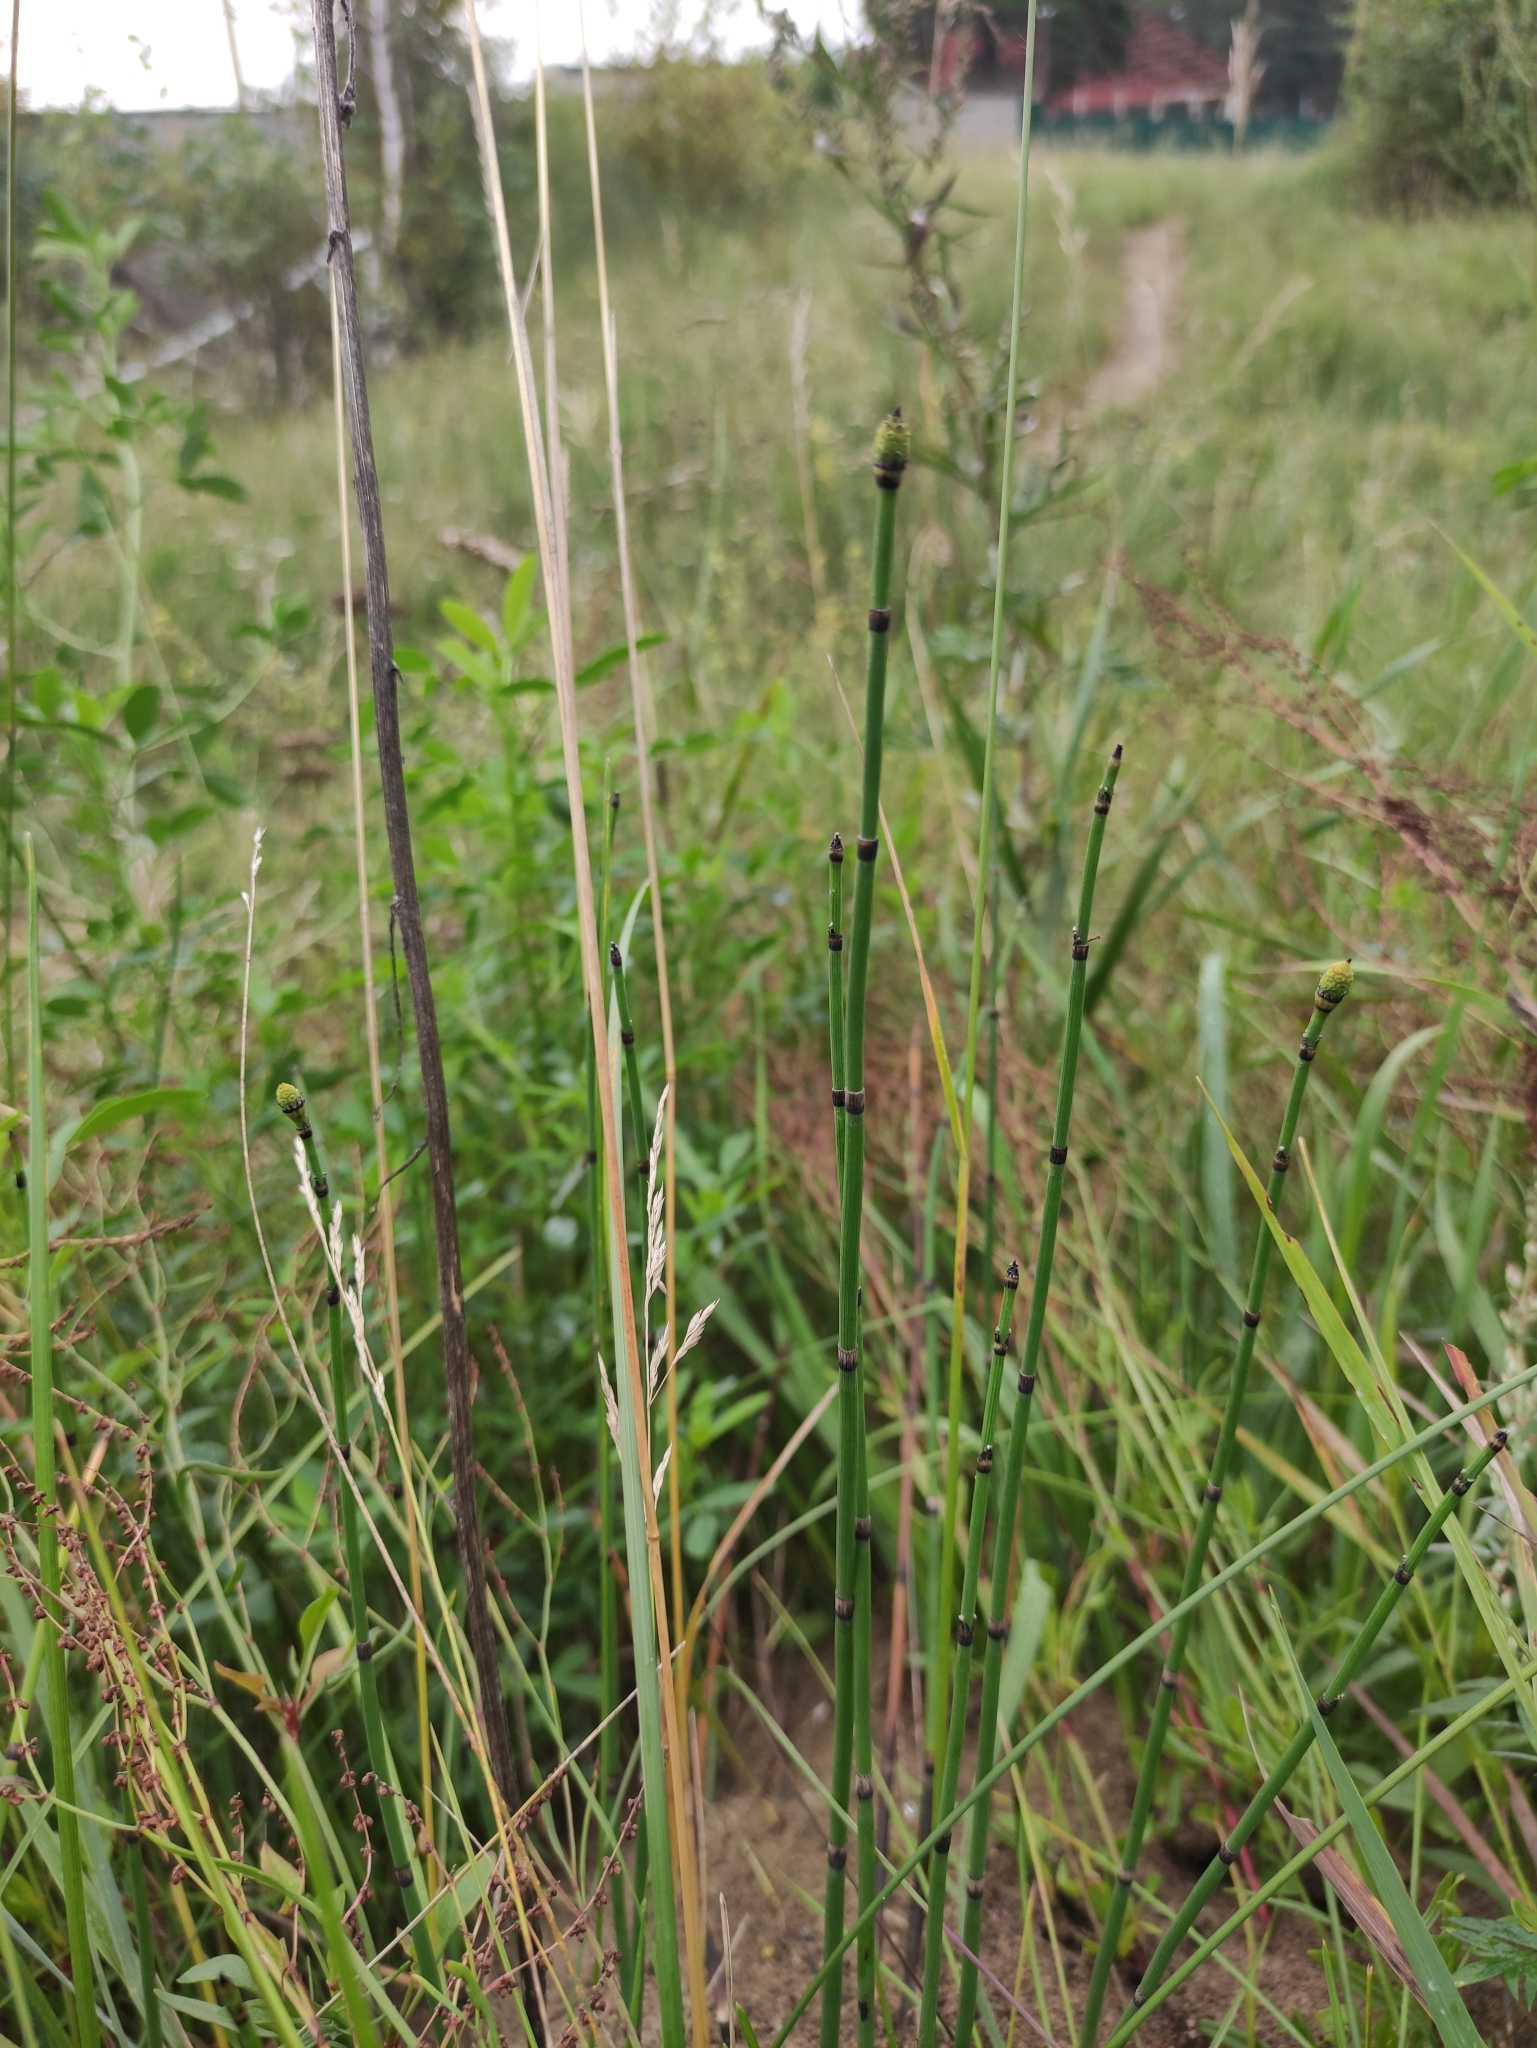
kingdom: Plantae
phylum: Tracheophyta
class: Polypodiopsida
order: Equisetales
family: Equisetaceae
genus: Equisetum
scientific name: Equisetum hyemale
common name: Rough horsetail
